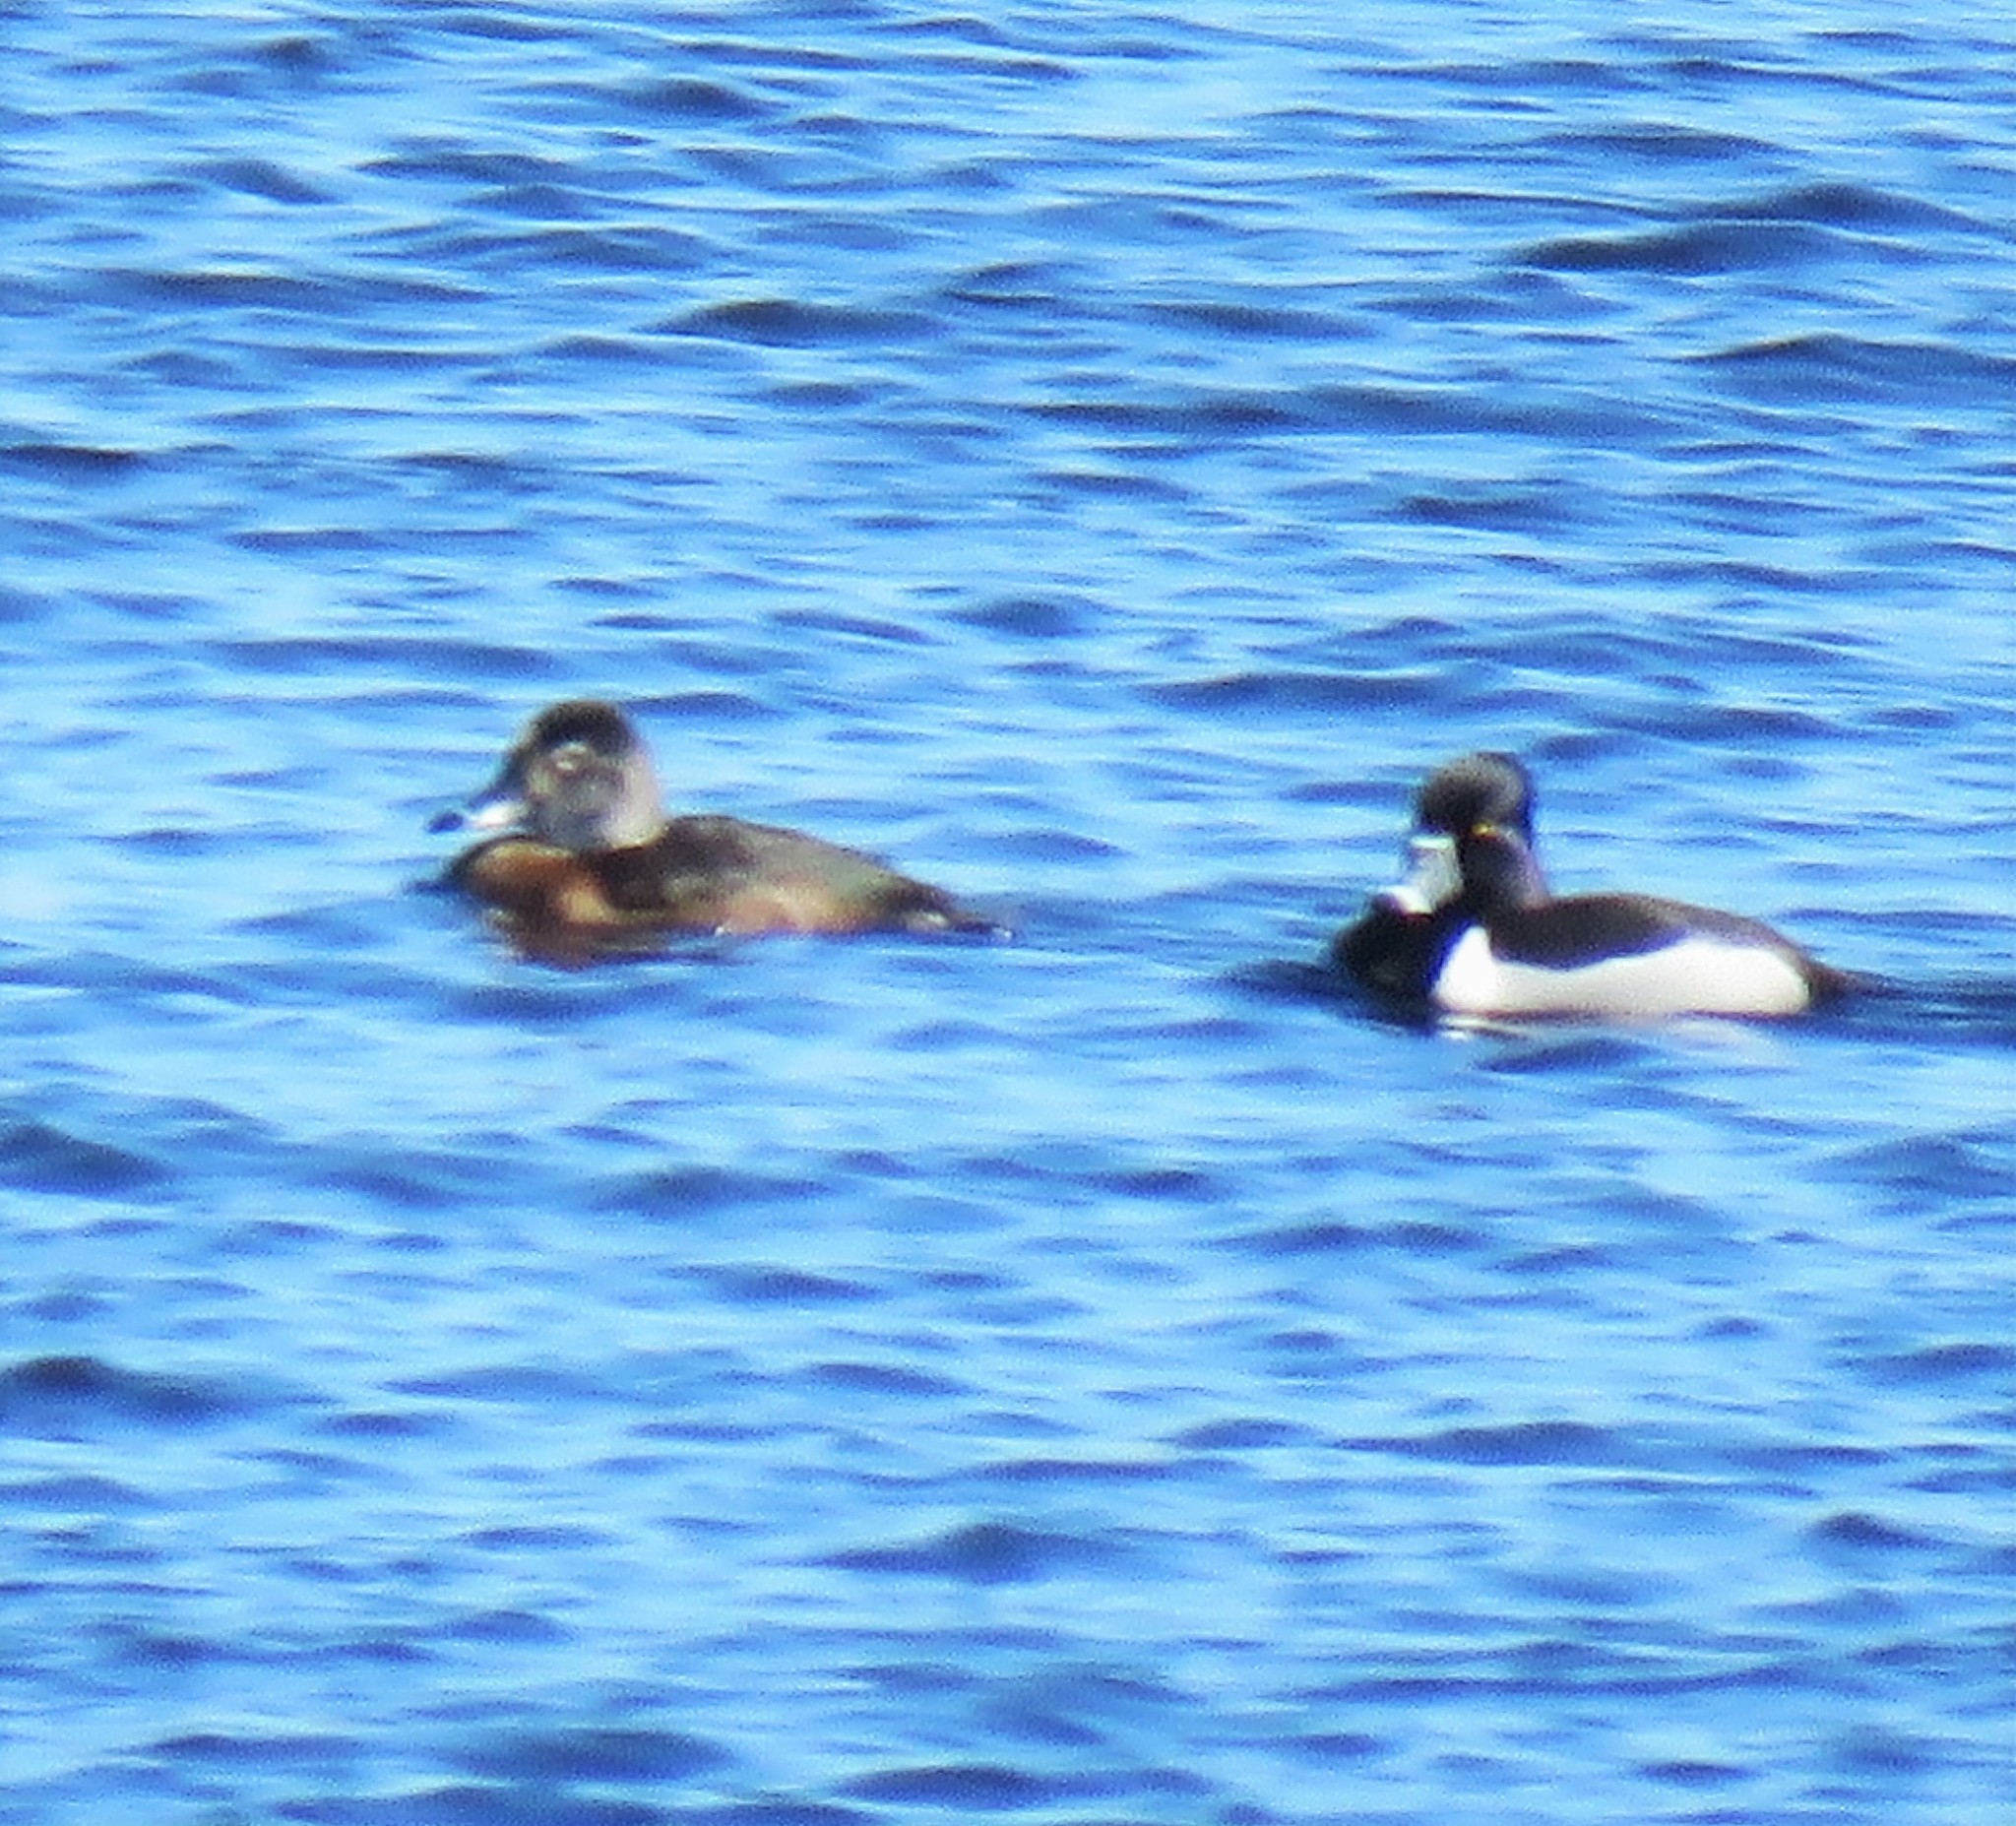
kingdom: Animalia
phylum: Chordata
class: Aves
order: Anseriformes
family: Anatidae
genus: Aythya
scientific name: Aythya collaris
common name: Ring-necked duck
